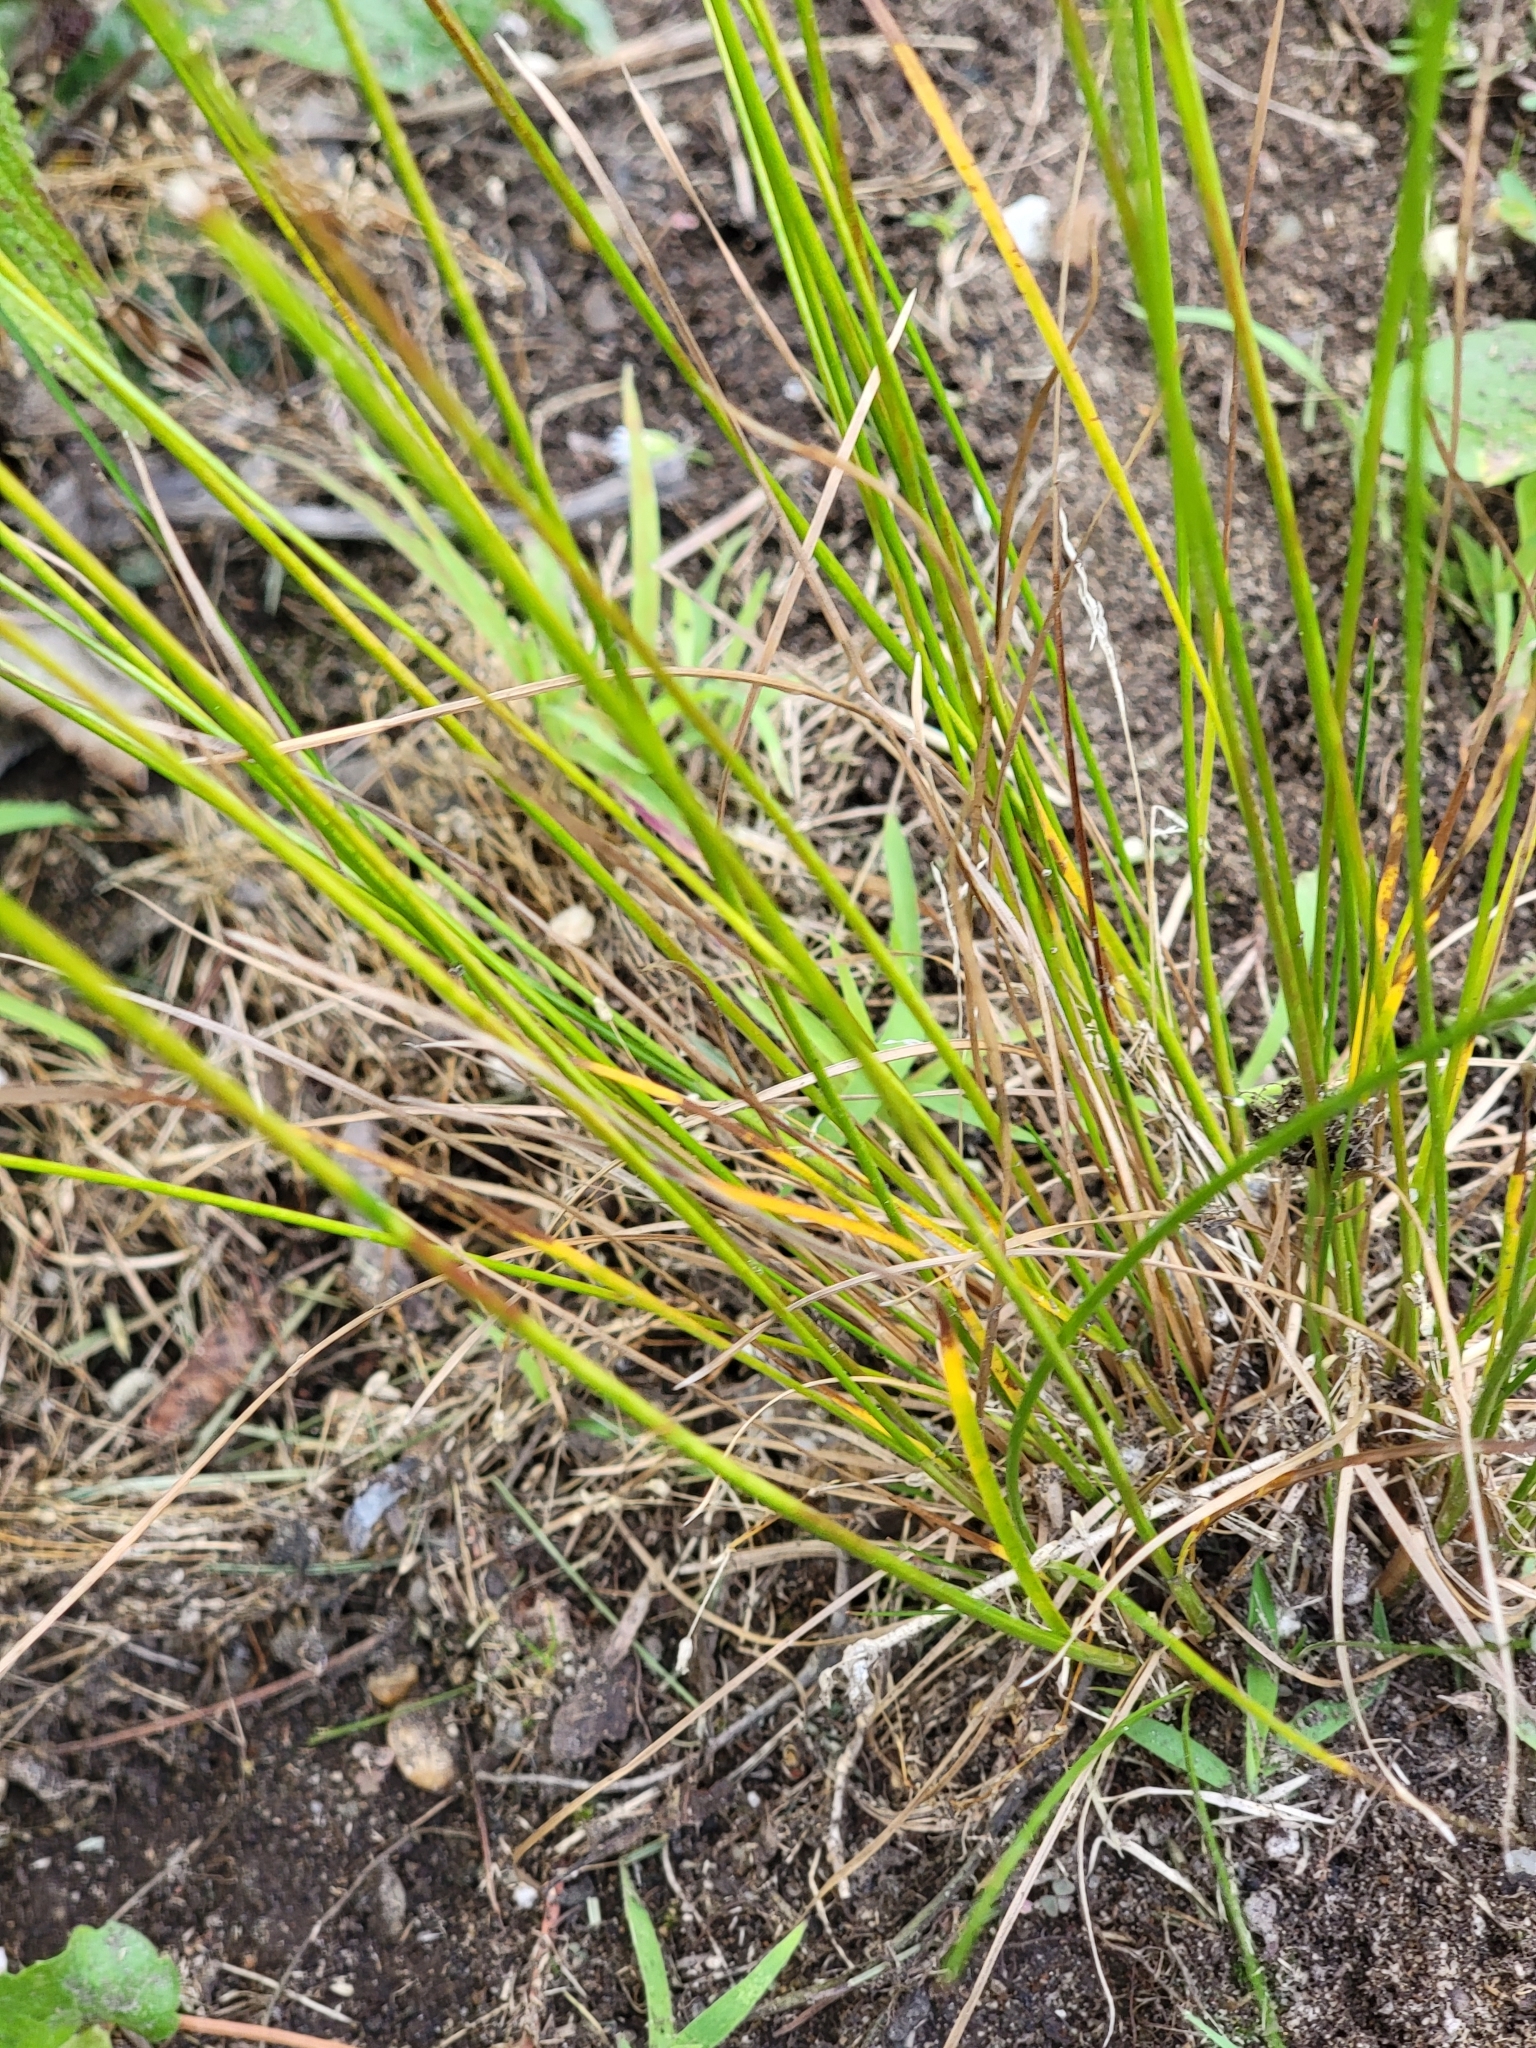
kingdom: Plantae
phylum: Tracheophyta
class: Liliopsida
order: Poales
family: Juncaceae
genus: Juncus
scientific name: Juncus tenuis
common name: Slender rush
